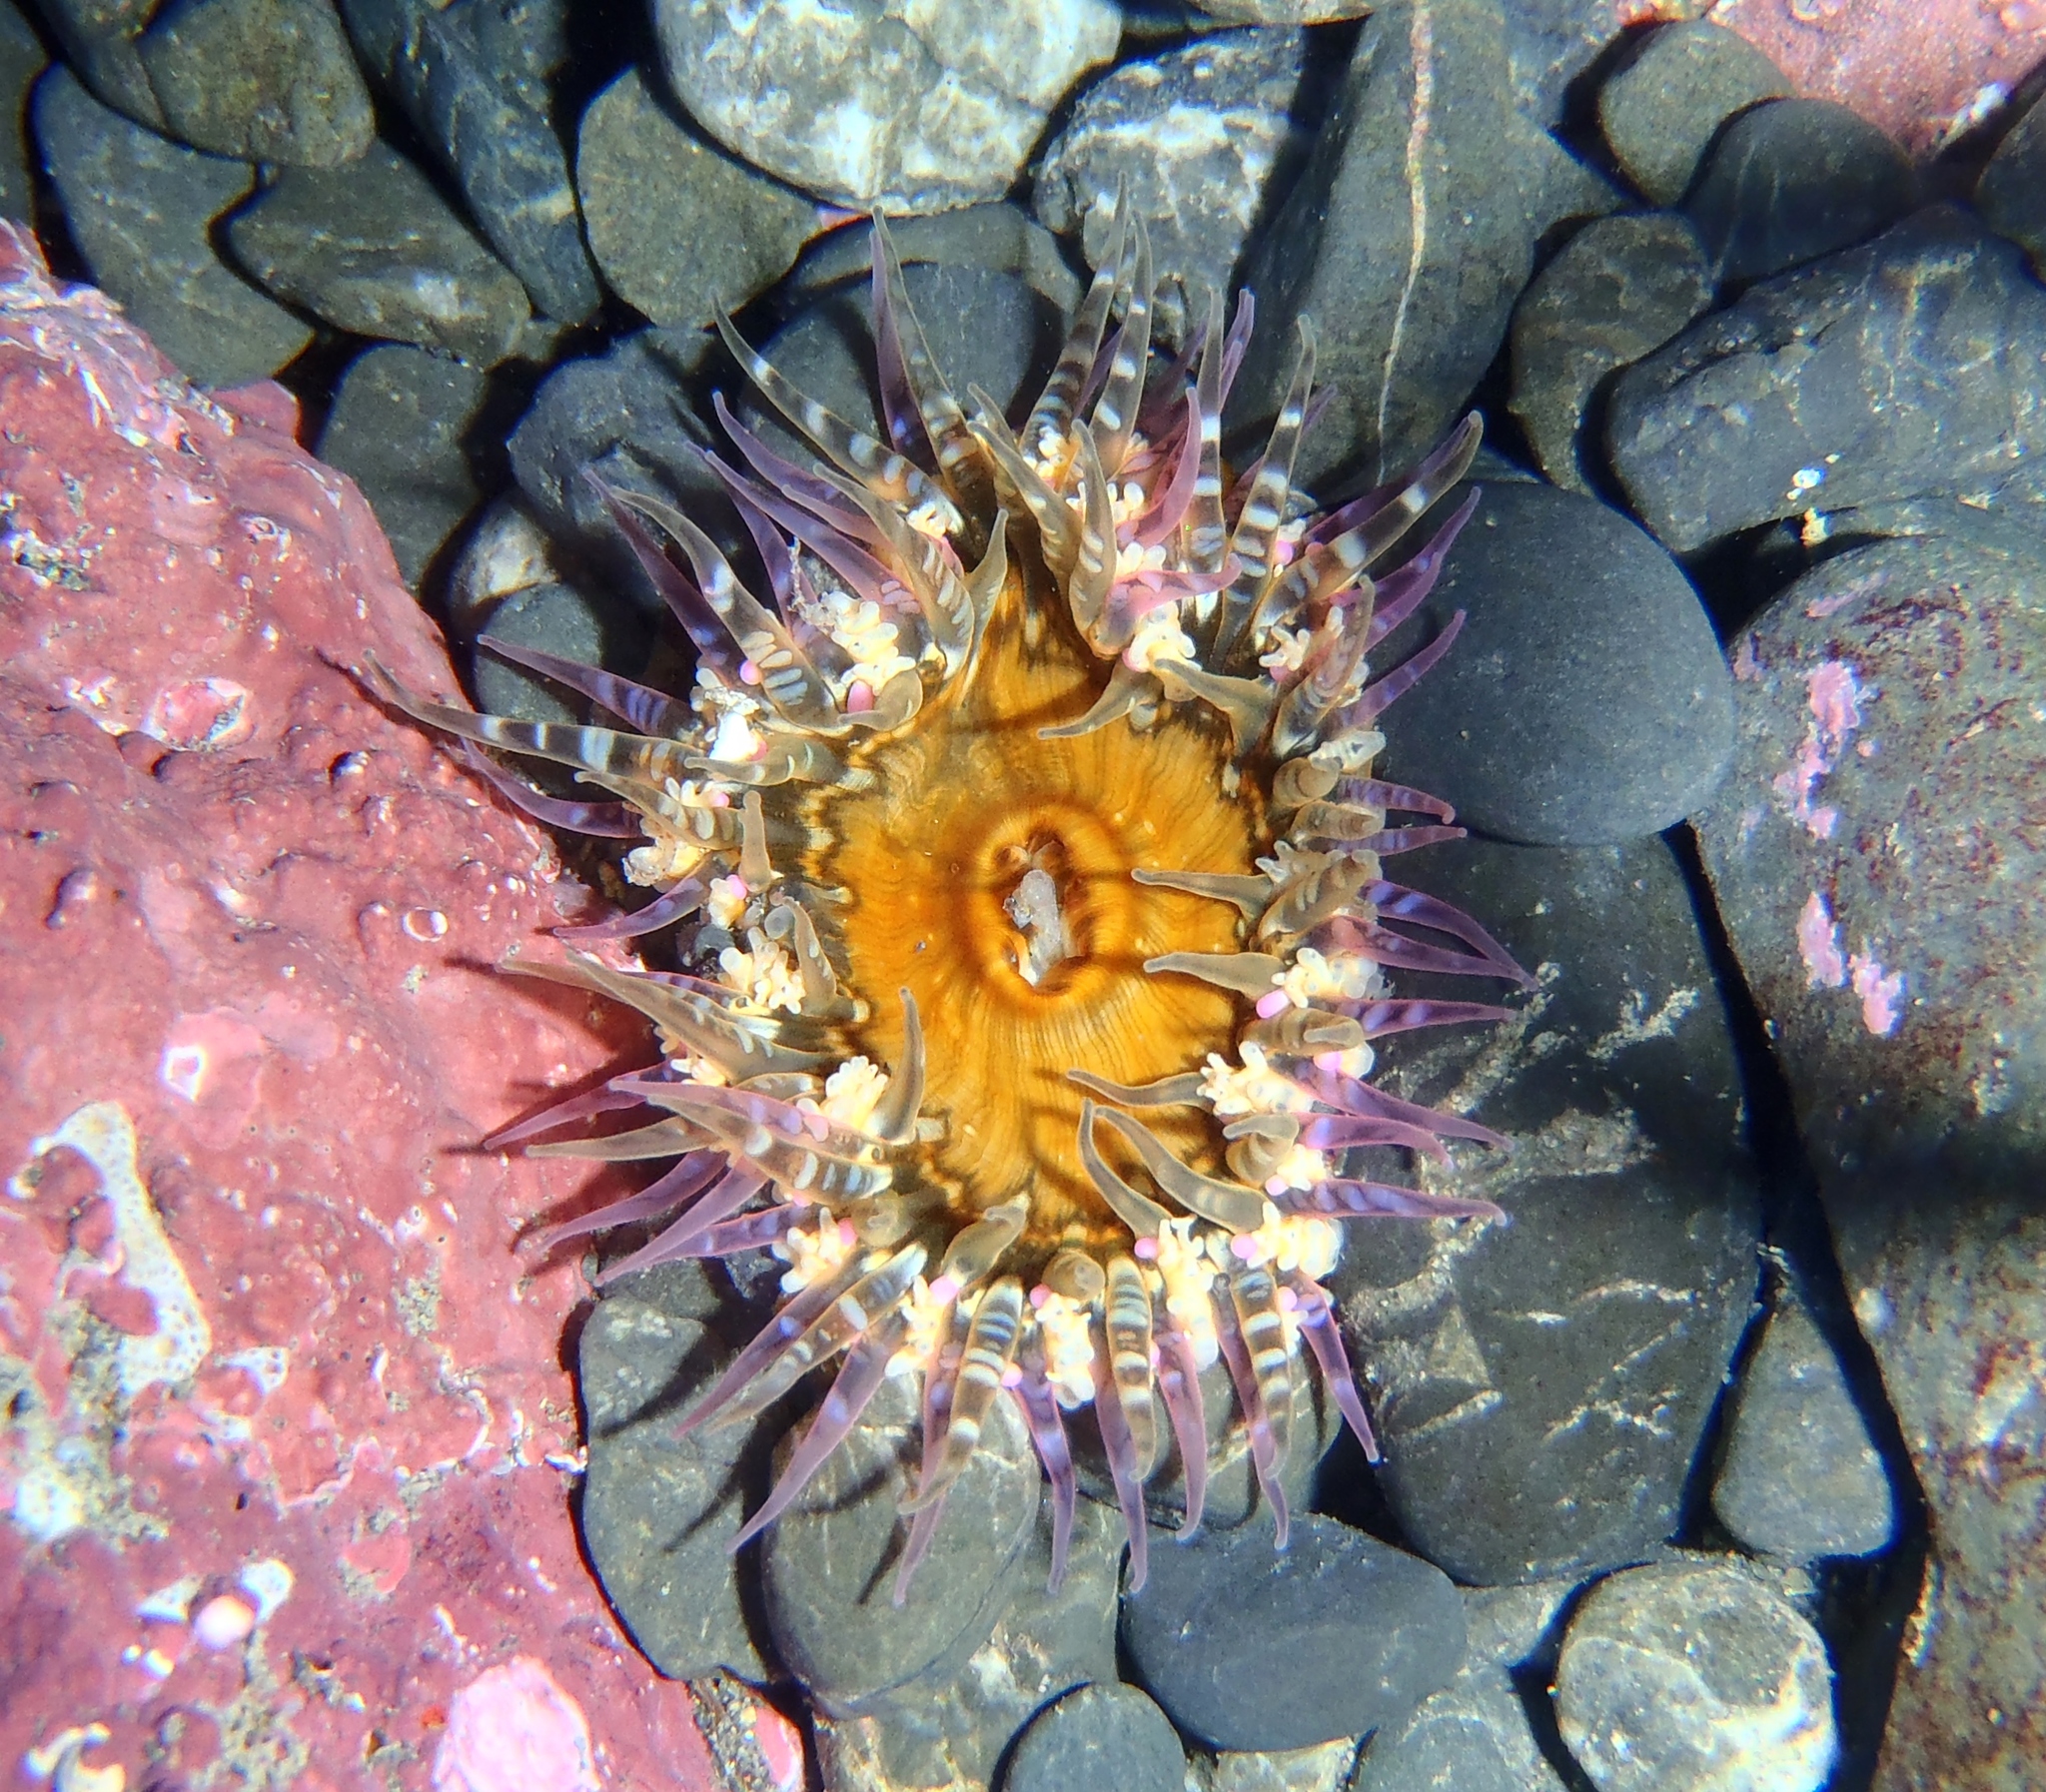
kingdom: Animalia
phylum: Cnidaria
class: Anthozoa
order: Actiniaria
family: Actiniidae
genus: Oulactis
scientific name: Oulactis muscosa
